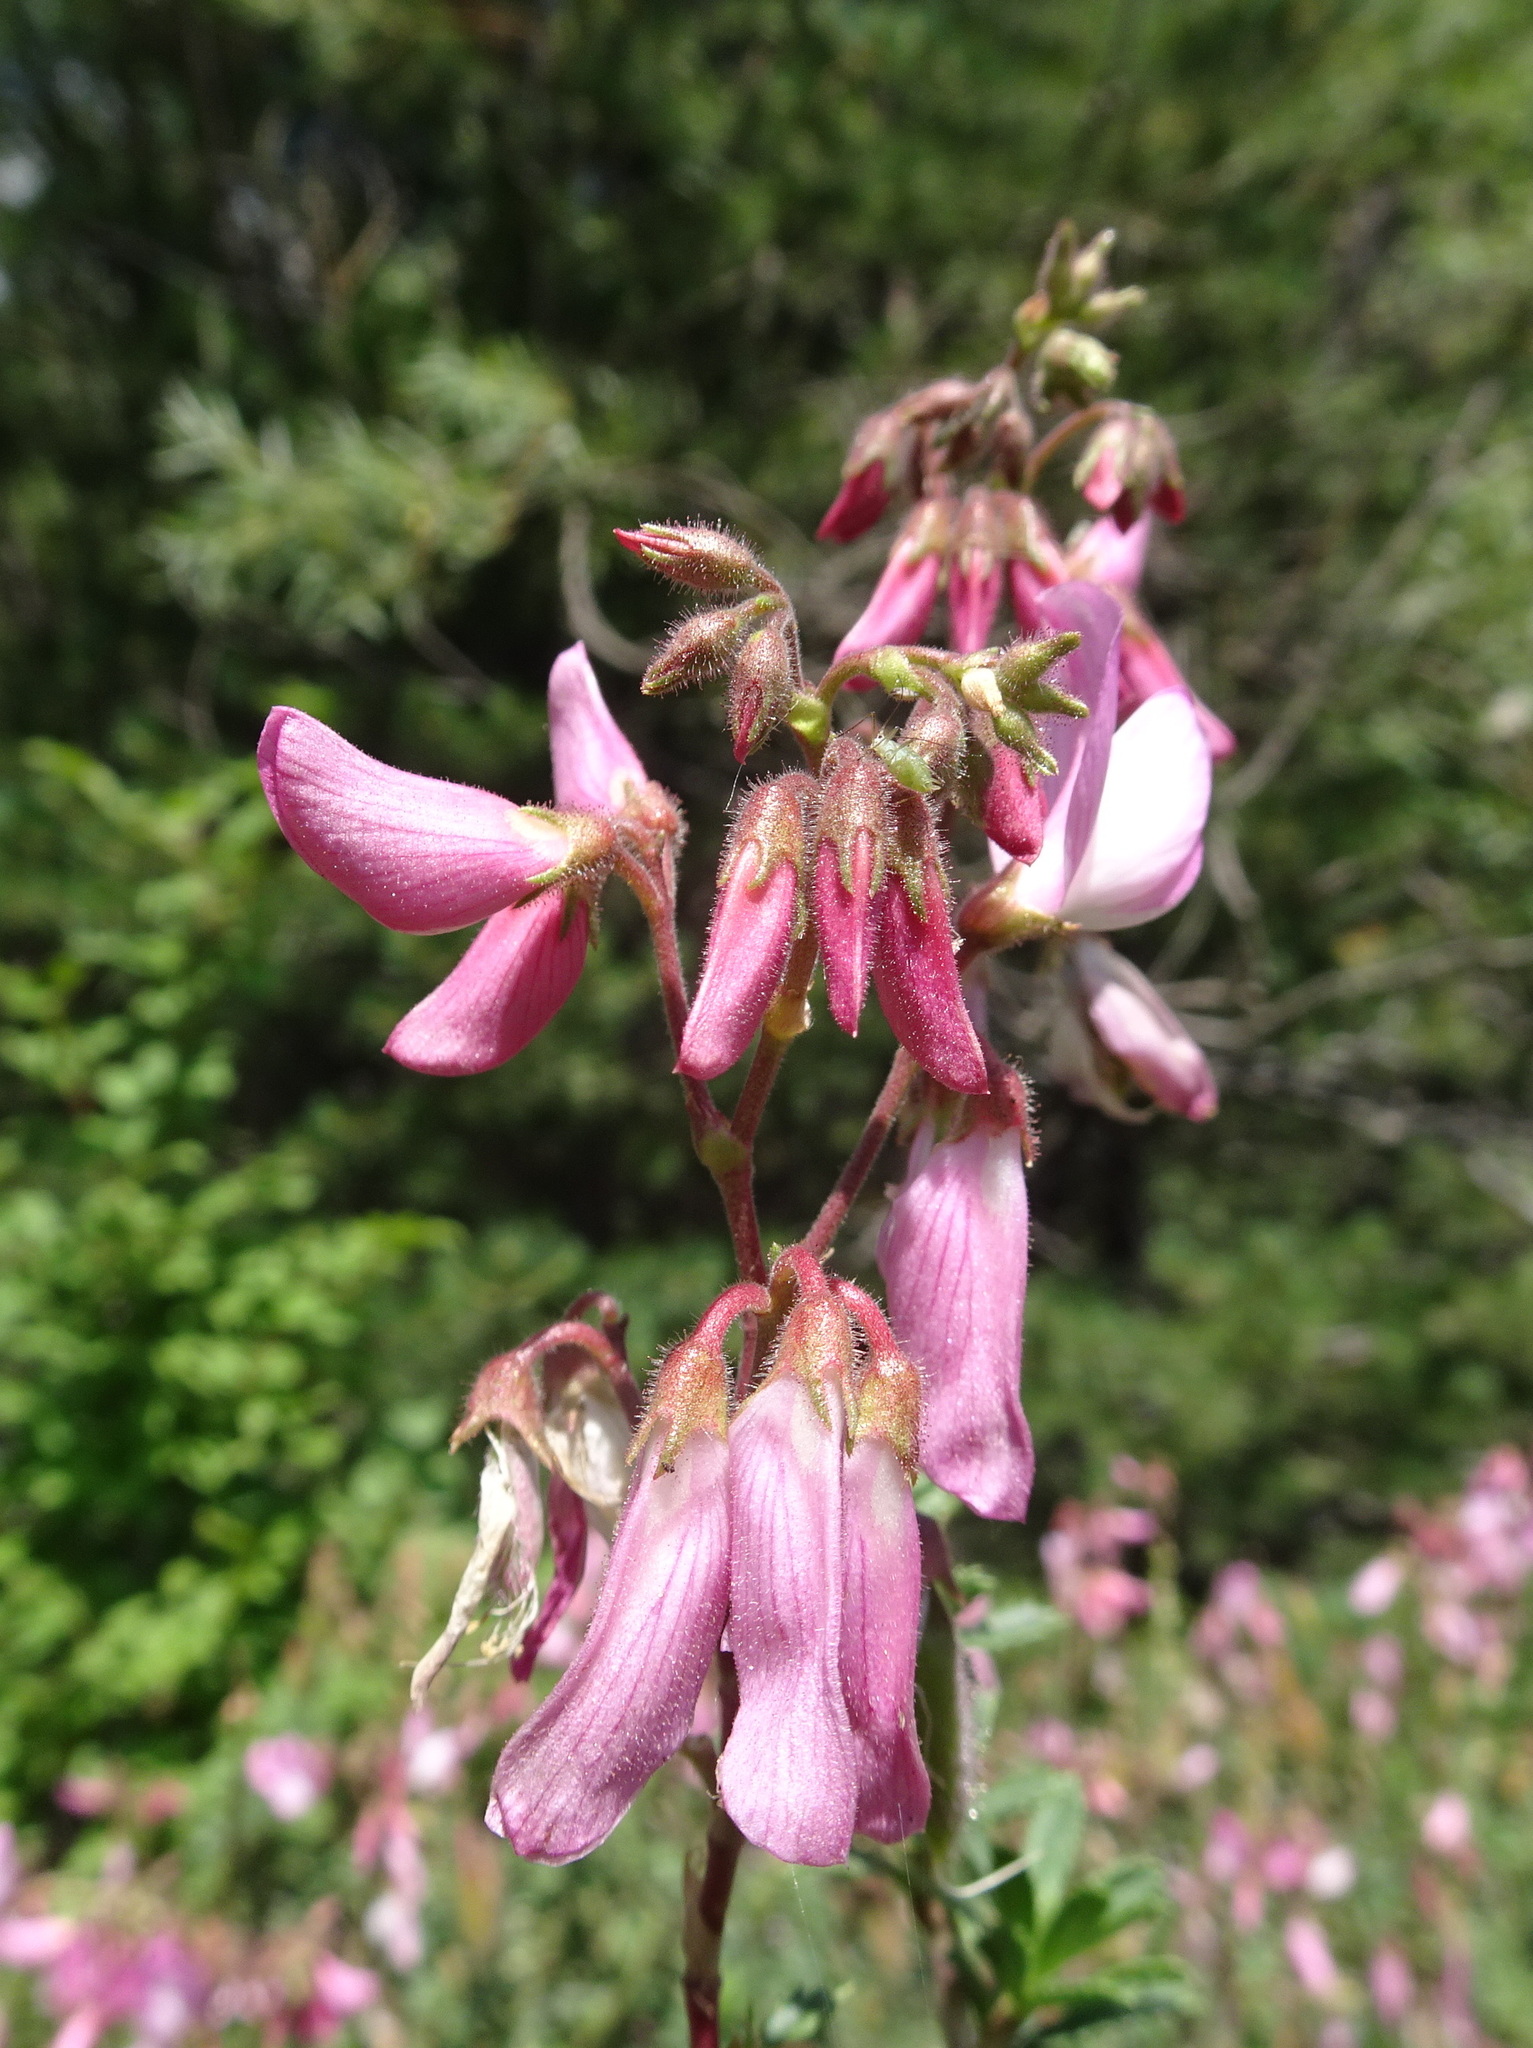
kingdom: Plantae
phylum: Tracheophyta
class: Magnoliopsida
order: Fabales
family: Fabaceae
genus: Ononis
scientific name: Ononis fruticosa
